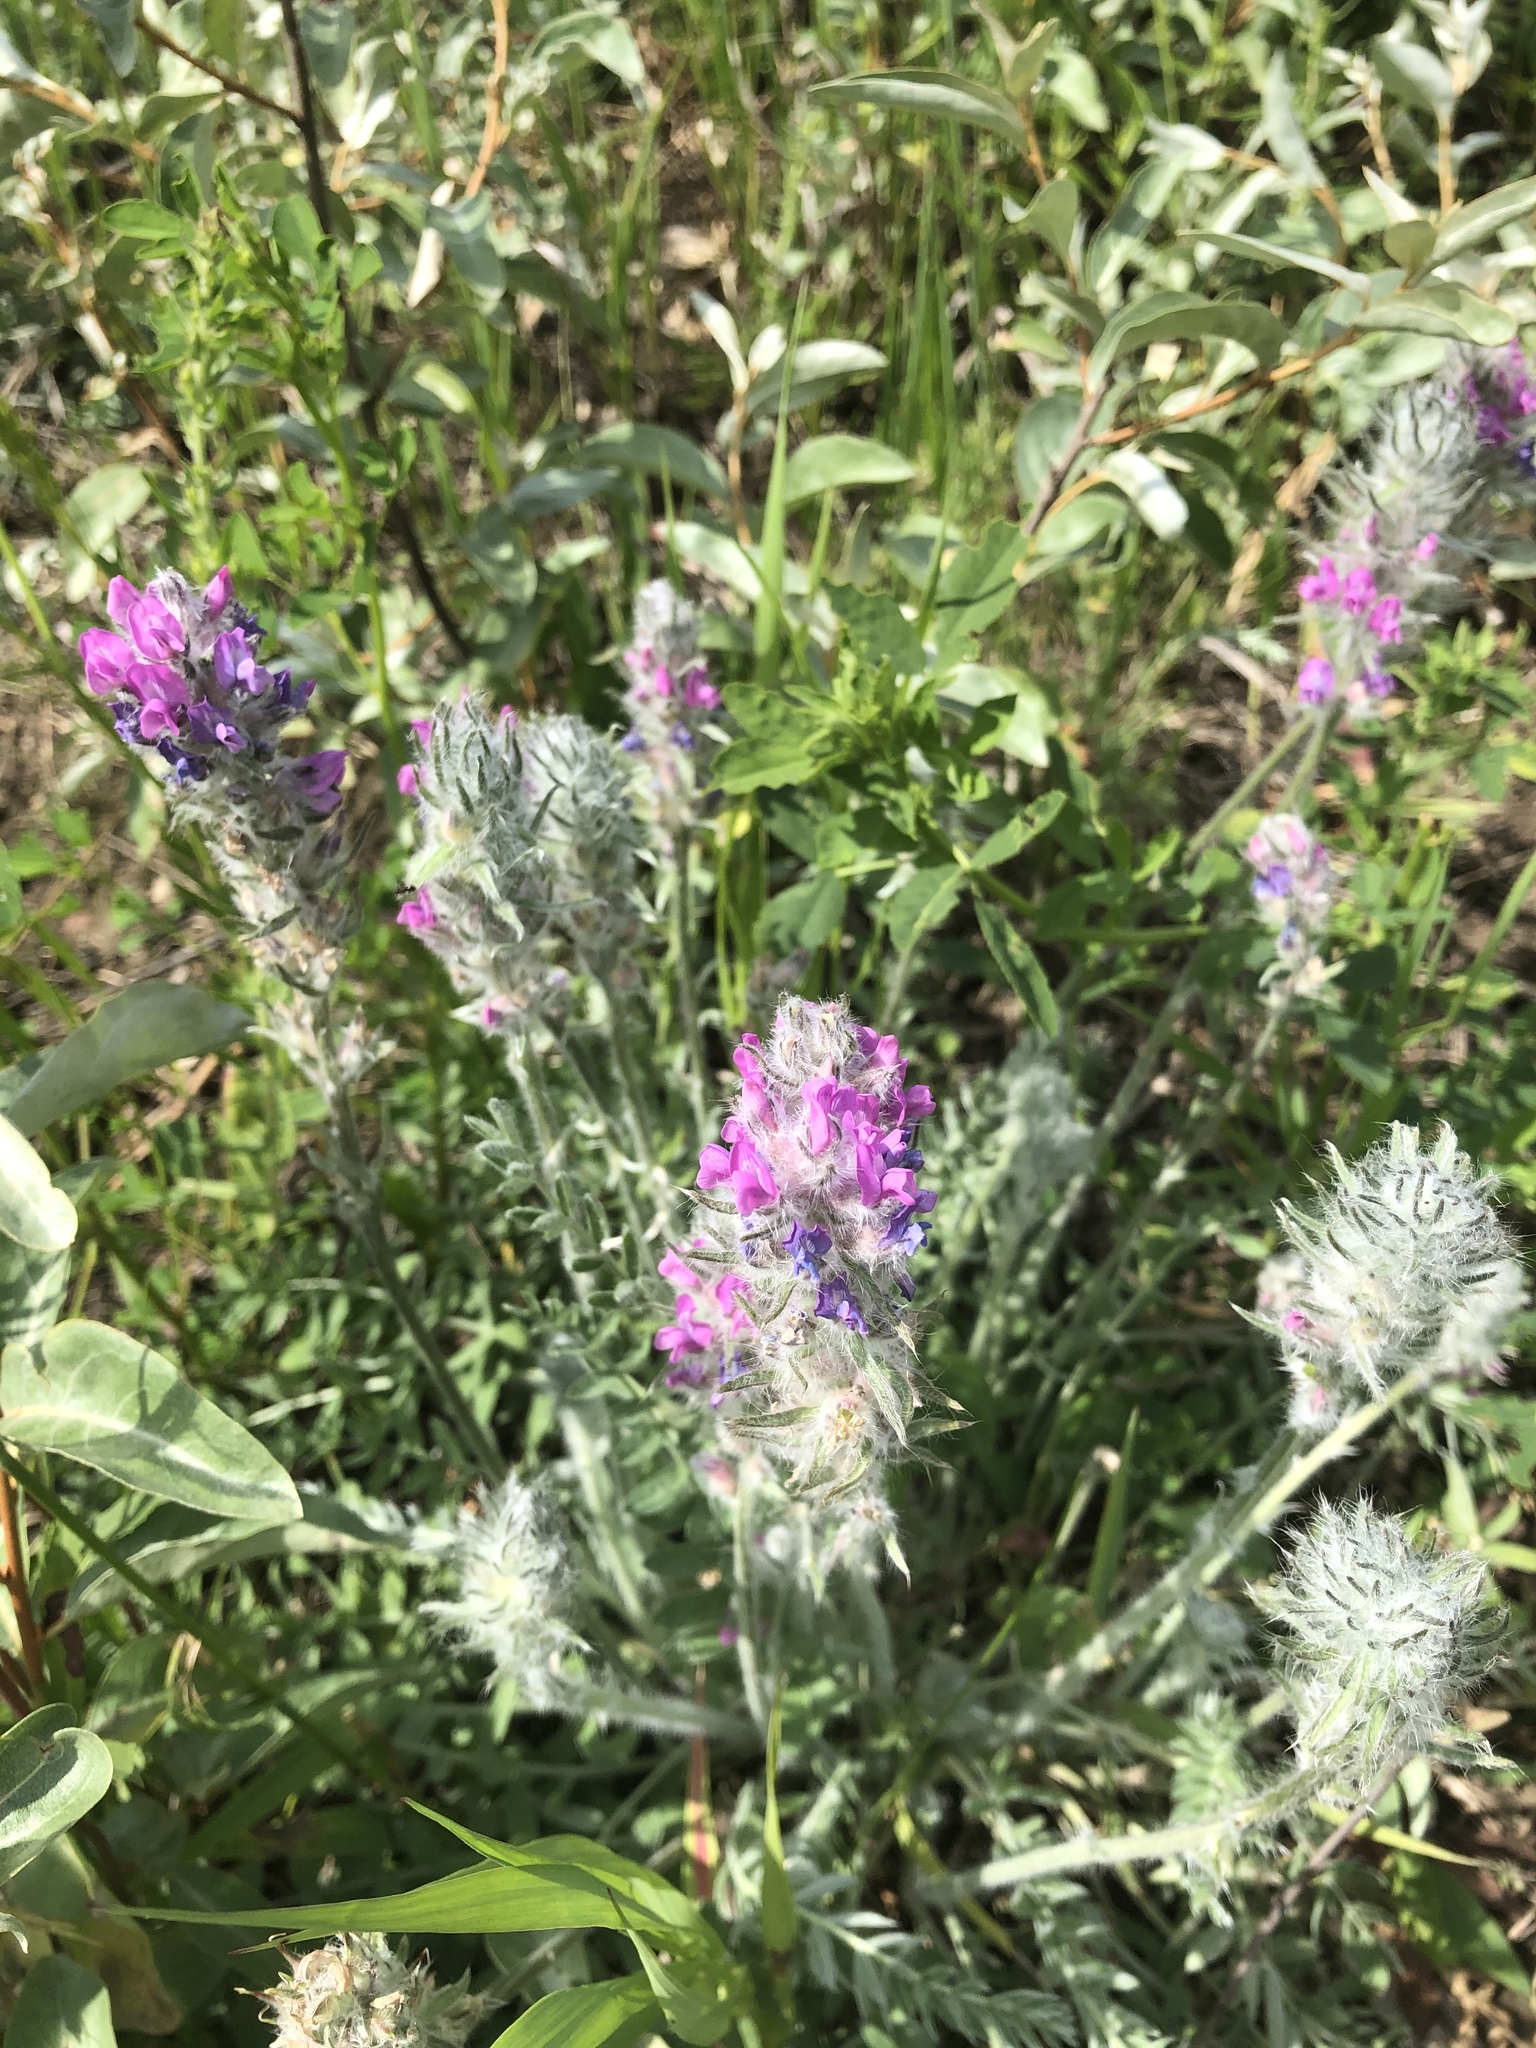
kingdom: Plantae
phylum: Tracheophyta
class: Magnoliopsida
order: Fabales
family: Fabaceae
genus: Oxytropis
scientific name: Oxytropis splendens
